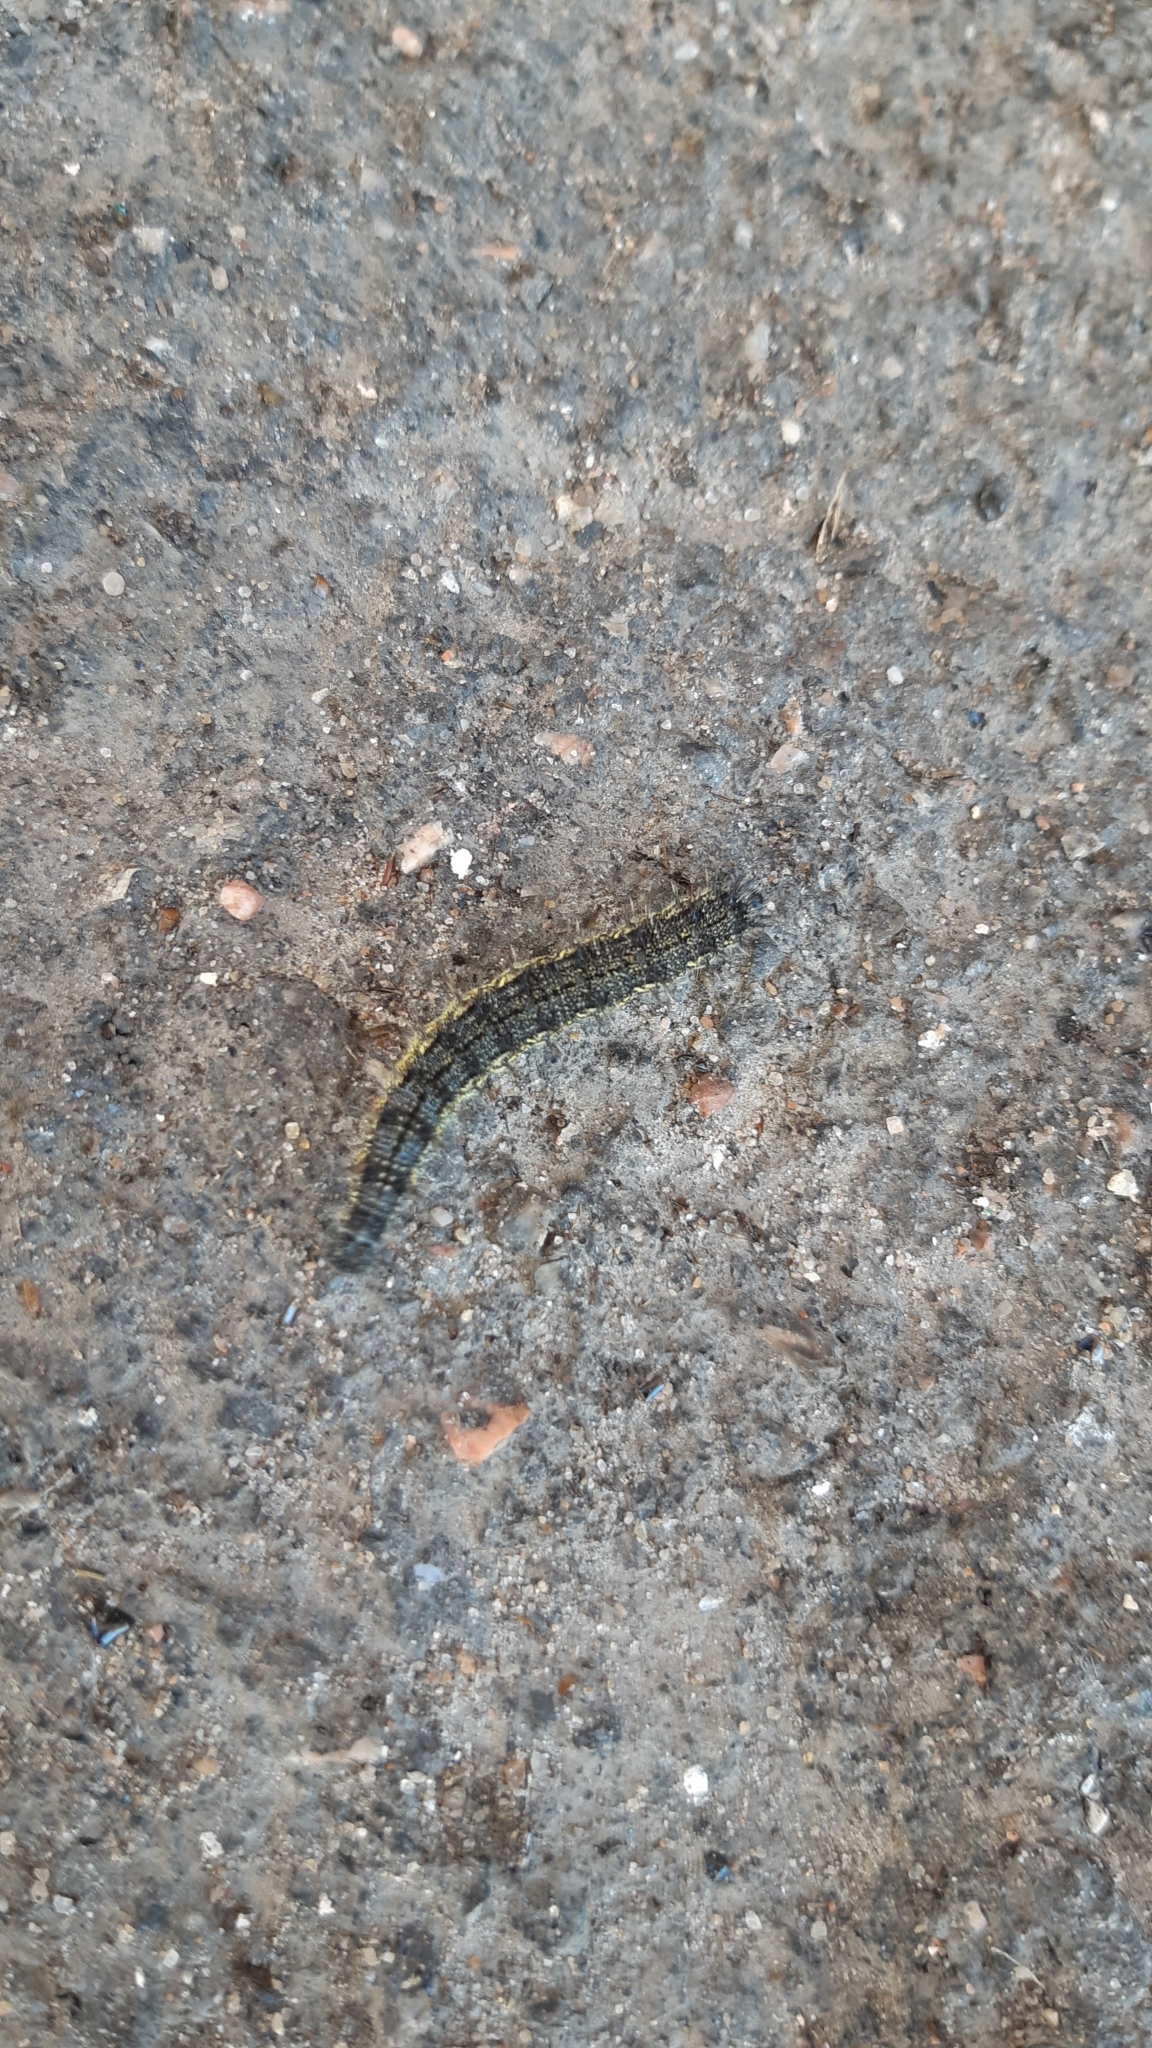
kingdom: Animalia
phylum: Arthropoda
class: Insecta
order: Lepidoptera
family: Nymphalidae
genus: Aglais
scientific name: Aglais urticae
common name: Small tortoiseshell
